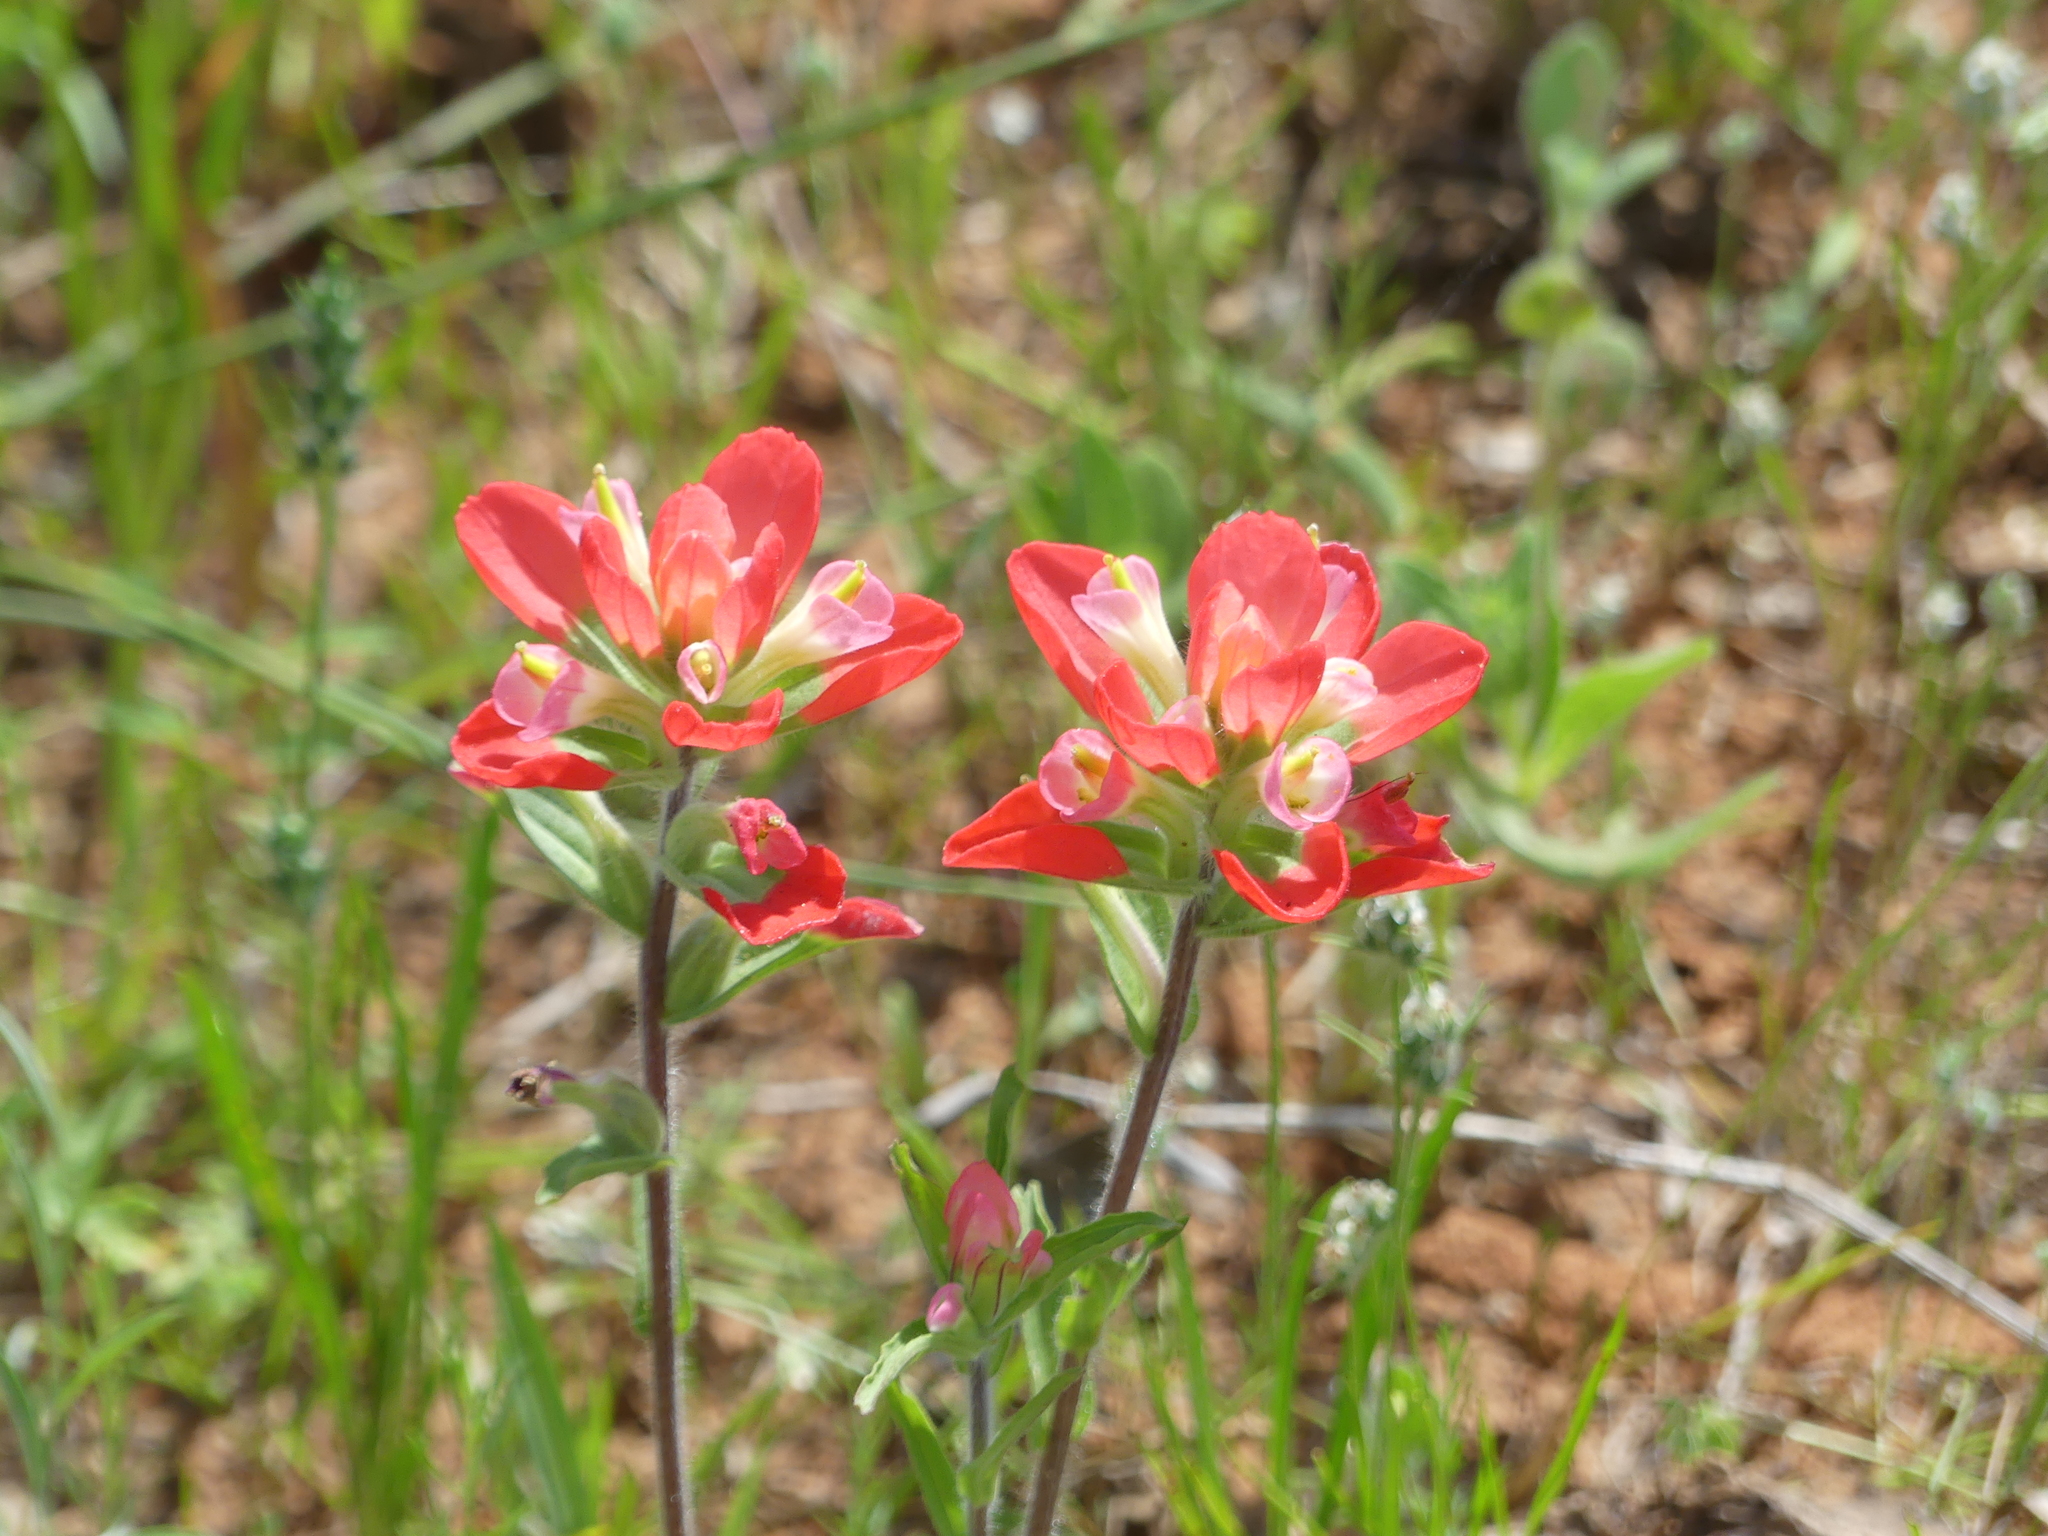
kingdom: Plantae
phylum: Tracheophyta
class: Magnoliopsida
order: Lamiales
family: Orobanchaceae
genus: Castilleja
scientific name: Castilleja indivisa
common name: Texas paintbrush
